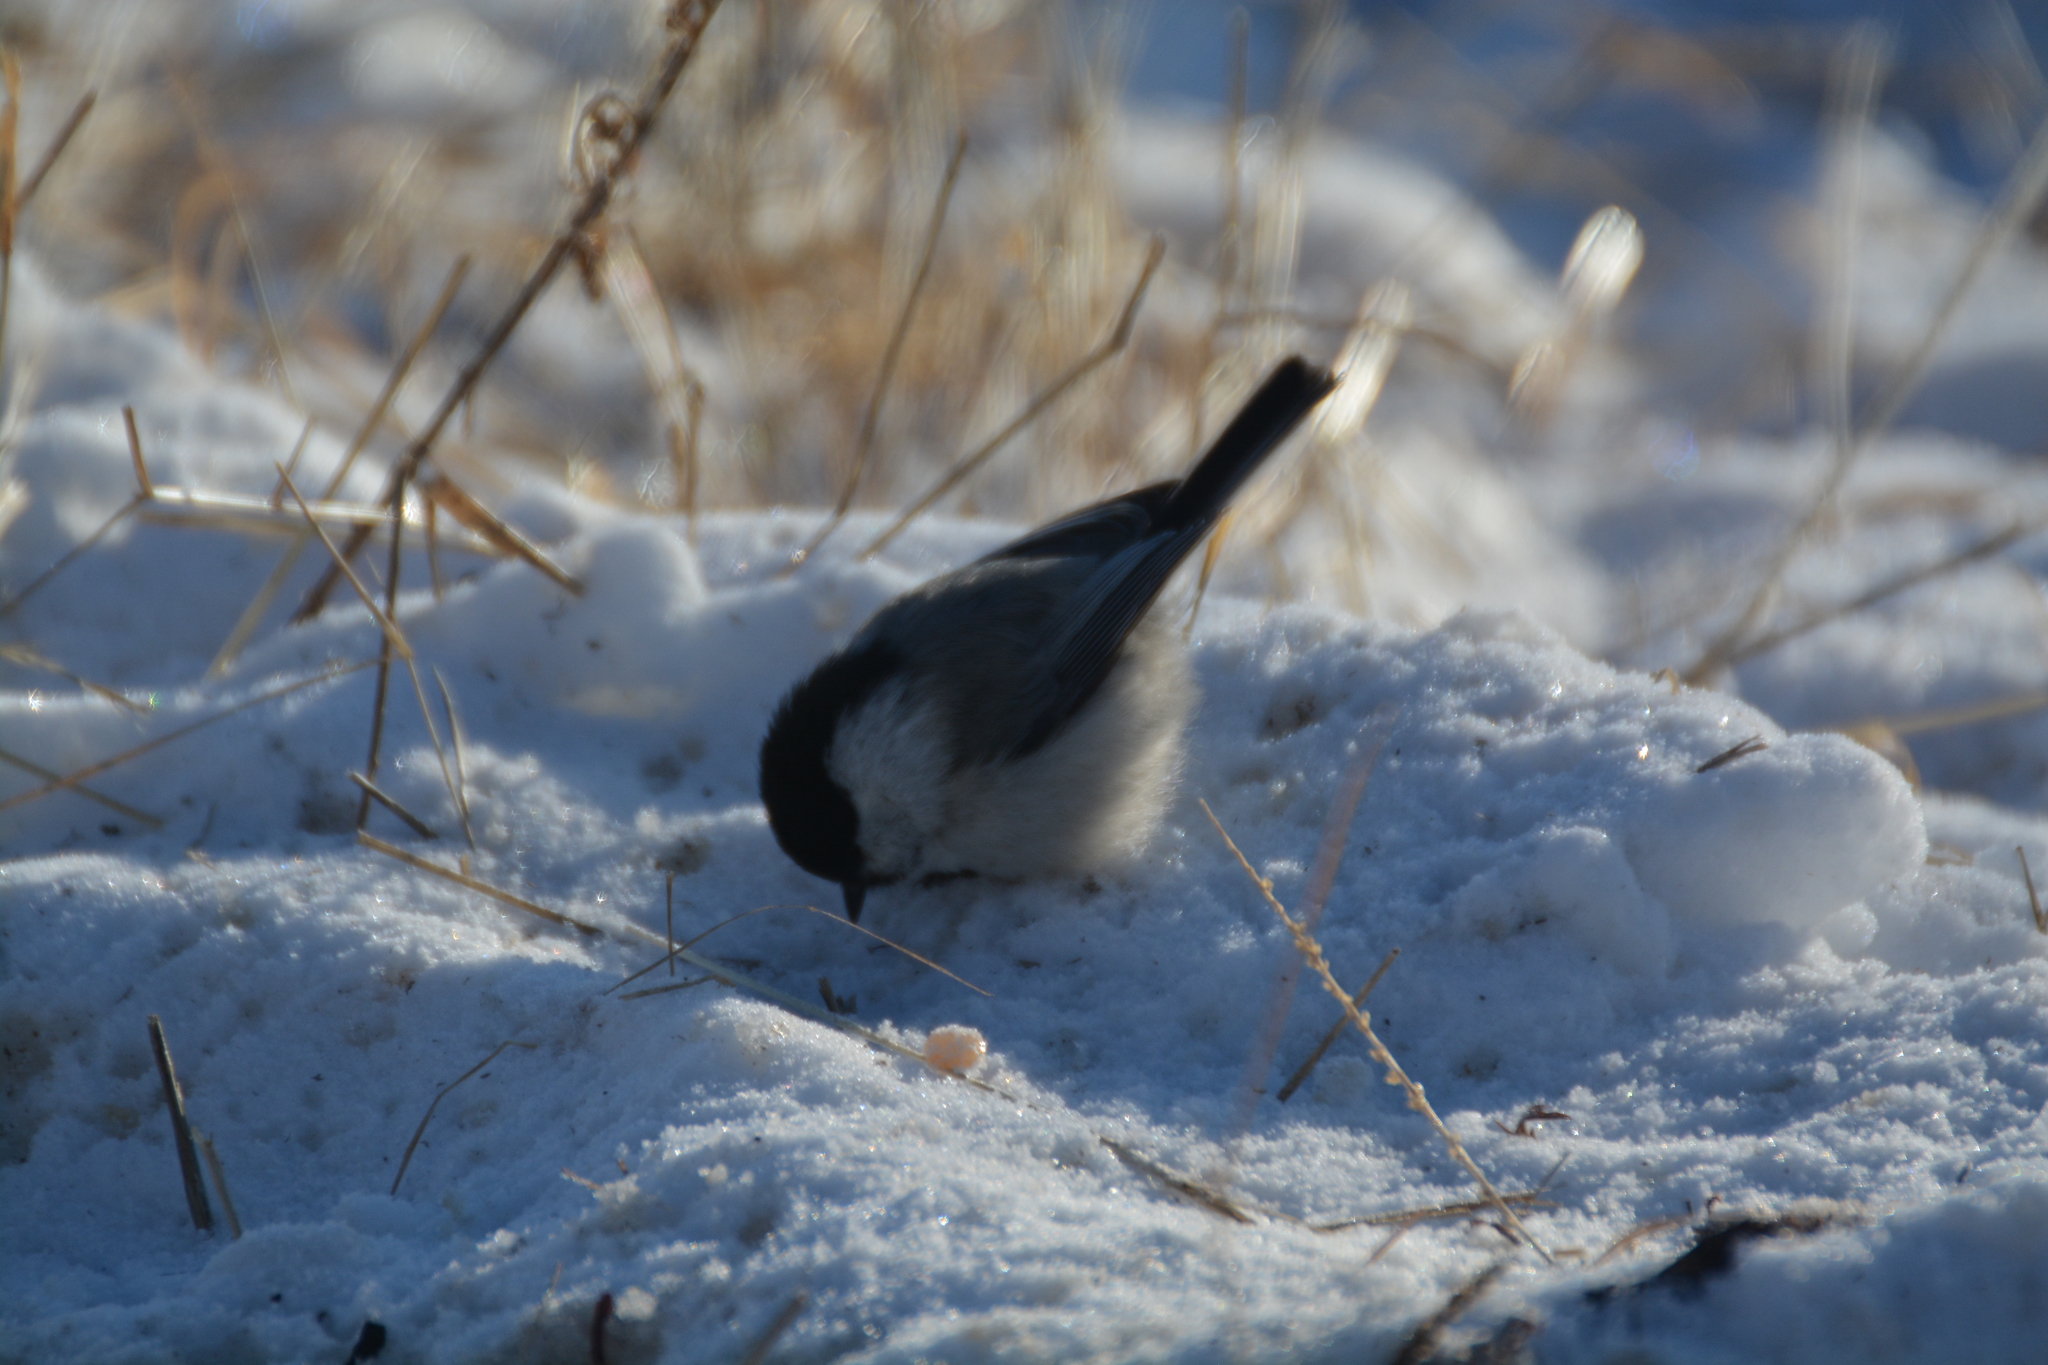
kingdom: Animalia
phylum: Chordata
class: Aves
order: Passeriformes
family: Paridae
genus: Poecile
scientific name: Poecile montanus
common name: Willow tit
